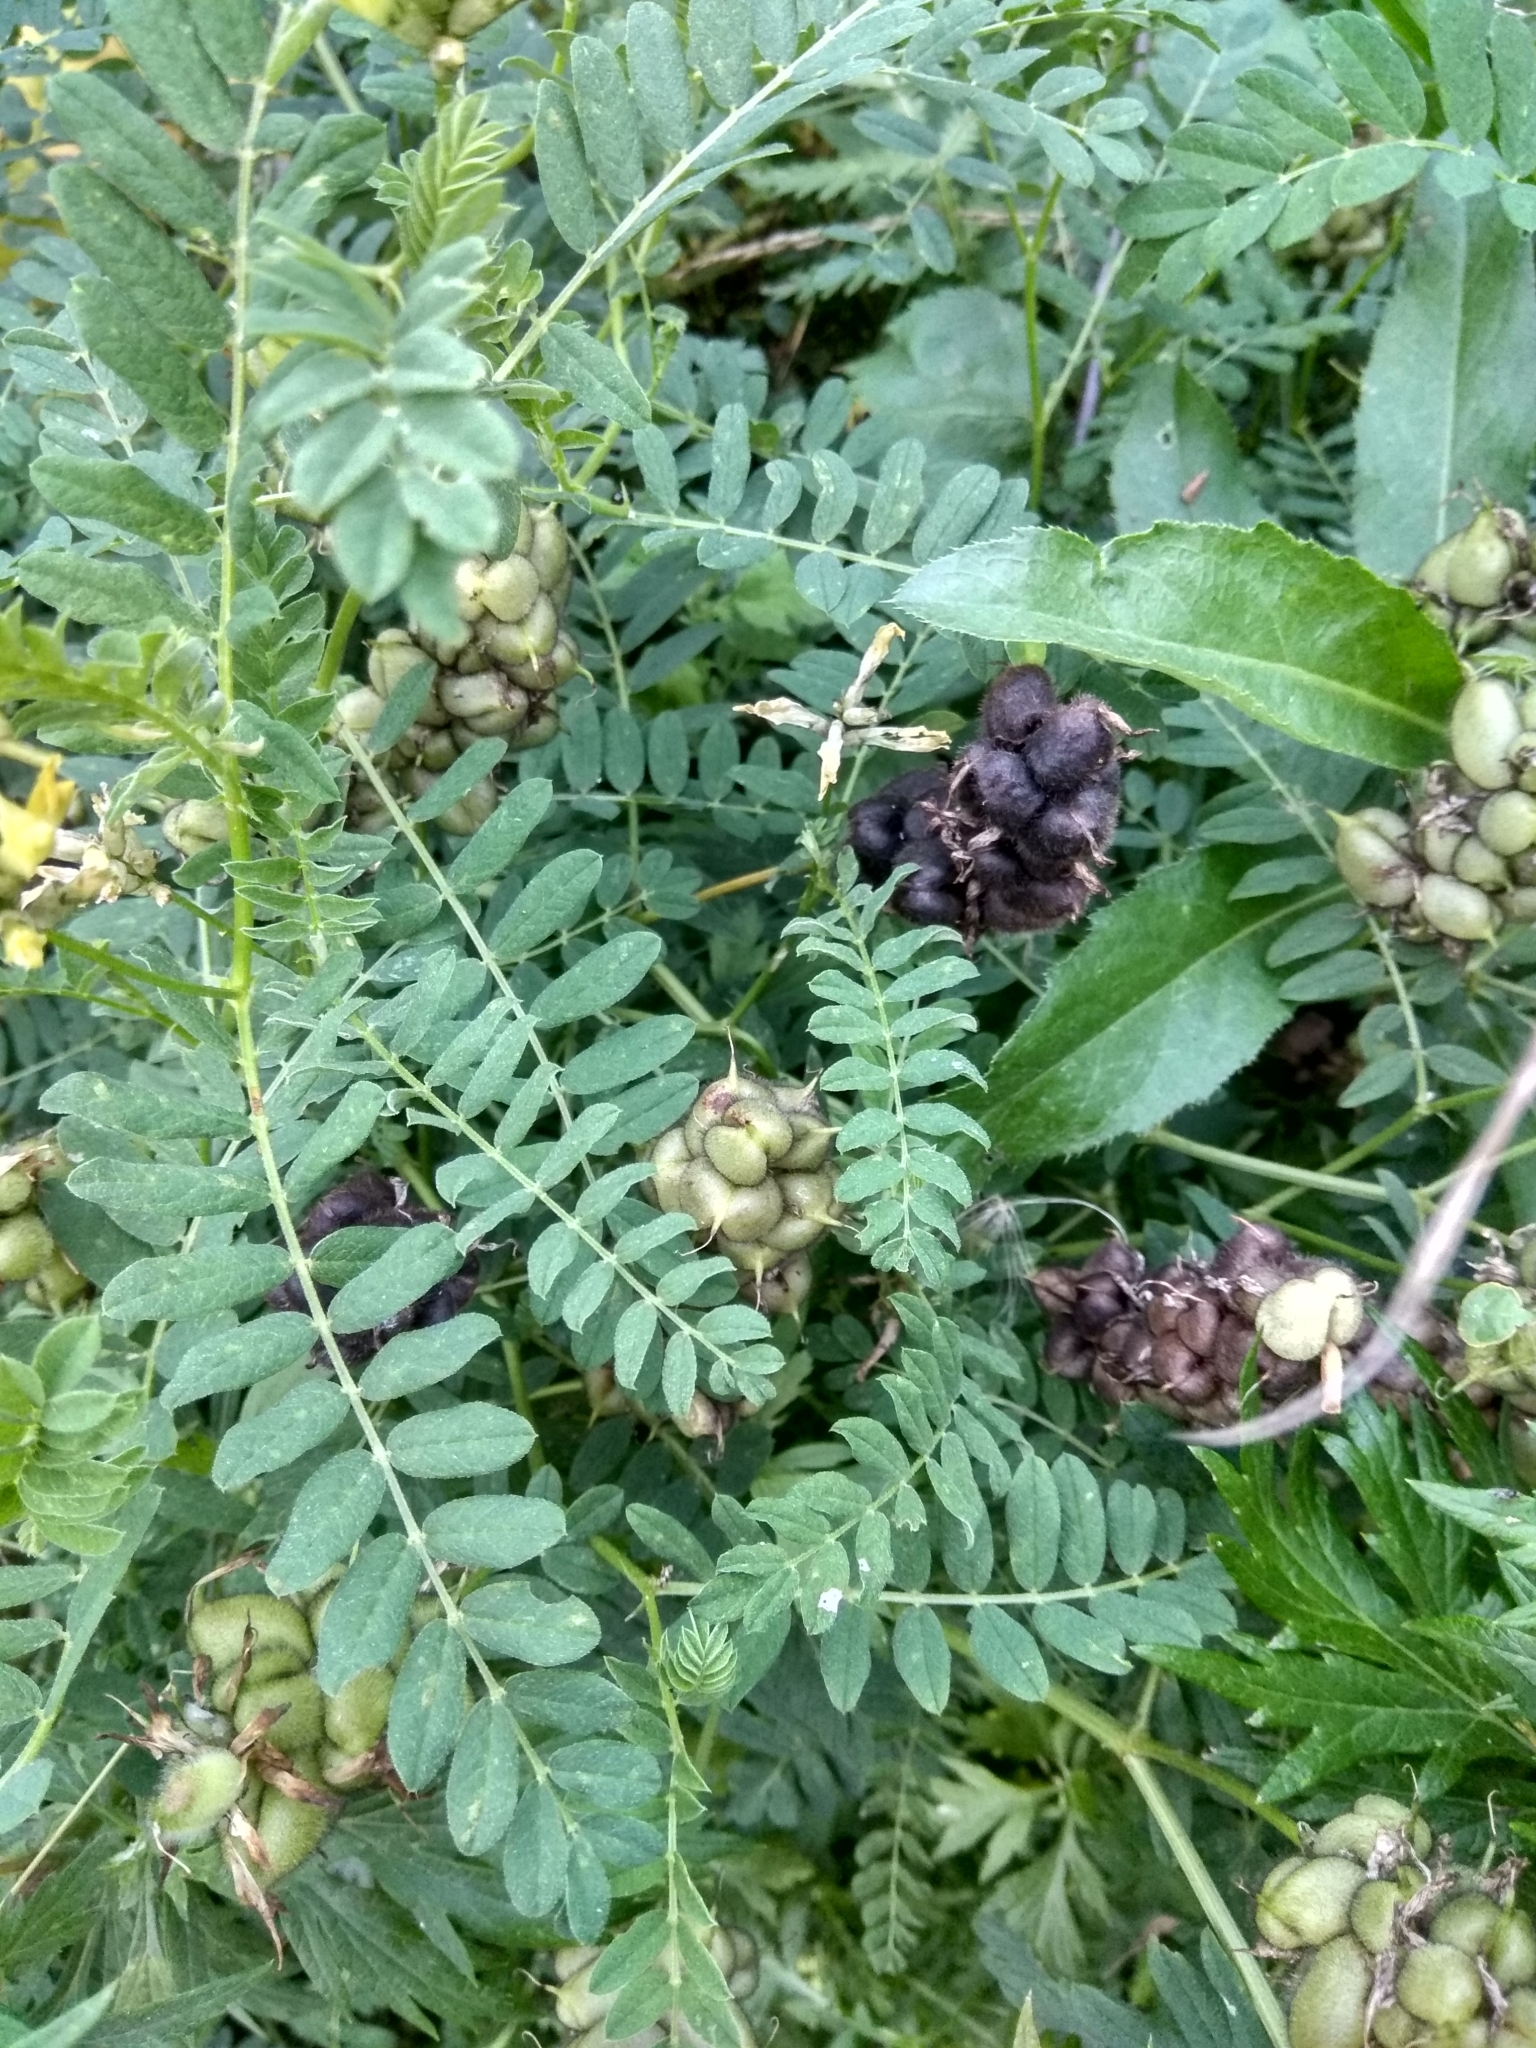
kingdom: Plantae
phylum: Tracheophyta
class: Magnoliopsida
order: Fabales
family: Fabaceae
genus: Astragalus
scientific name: Astragalus cicer
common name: Chick-pea milk-vetch
